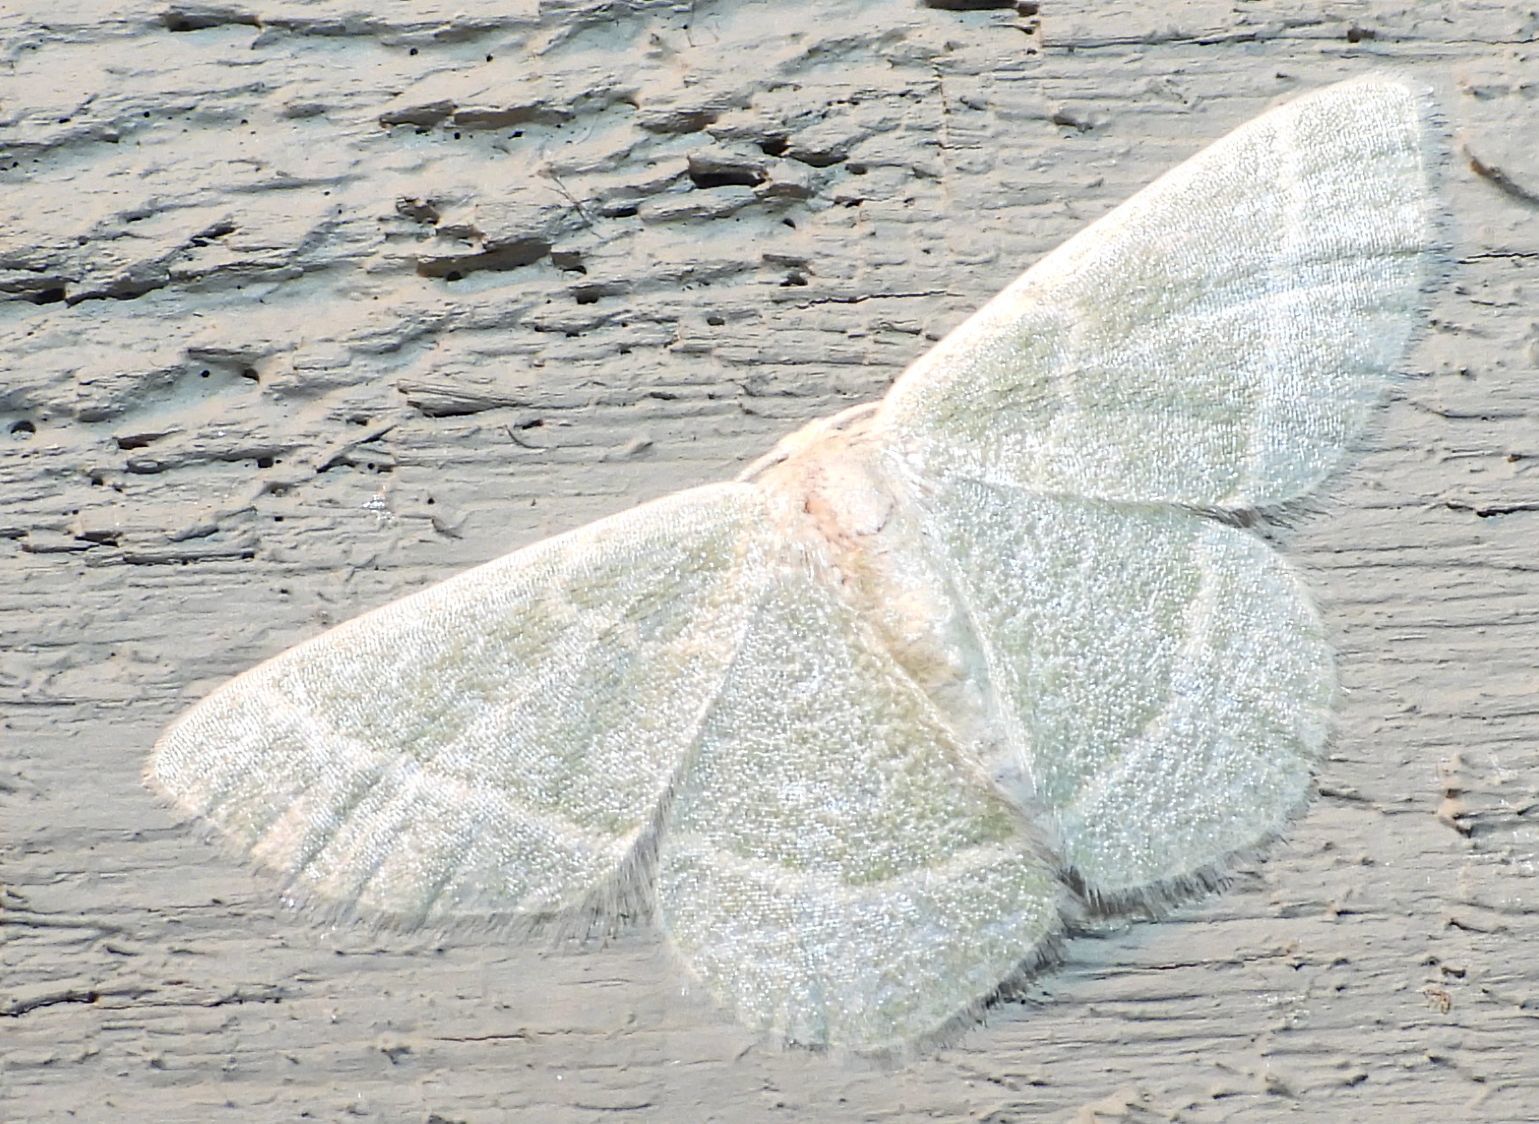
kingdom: Animalia
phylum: Arthropoda
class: Insecta
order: Lepidoptera
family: Geometridae
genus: Chlorochlamys
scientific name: Chlorochlamys chloroleucaria
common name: Blackberry looper
